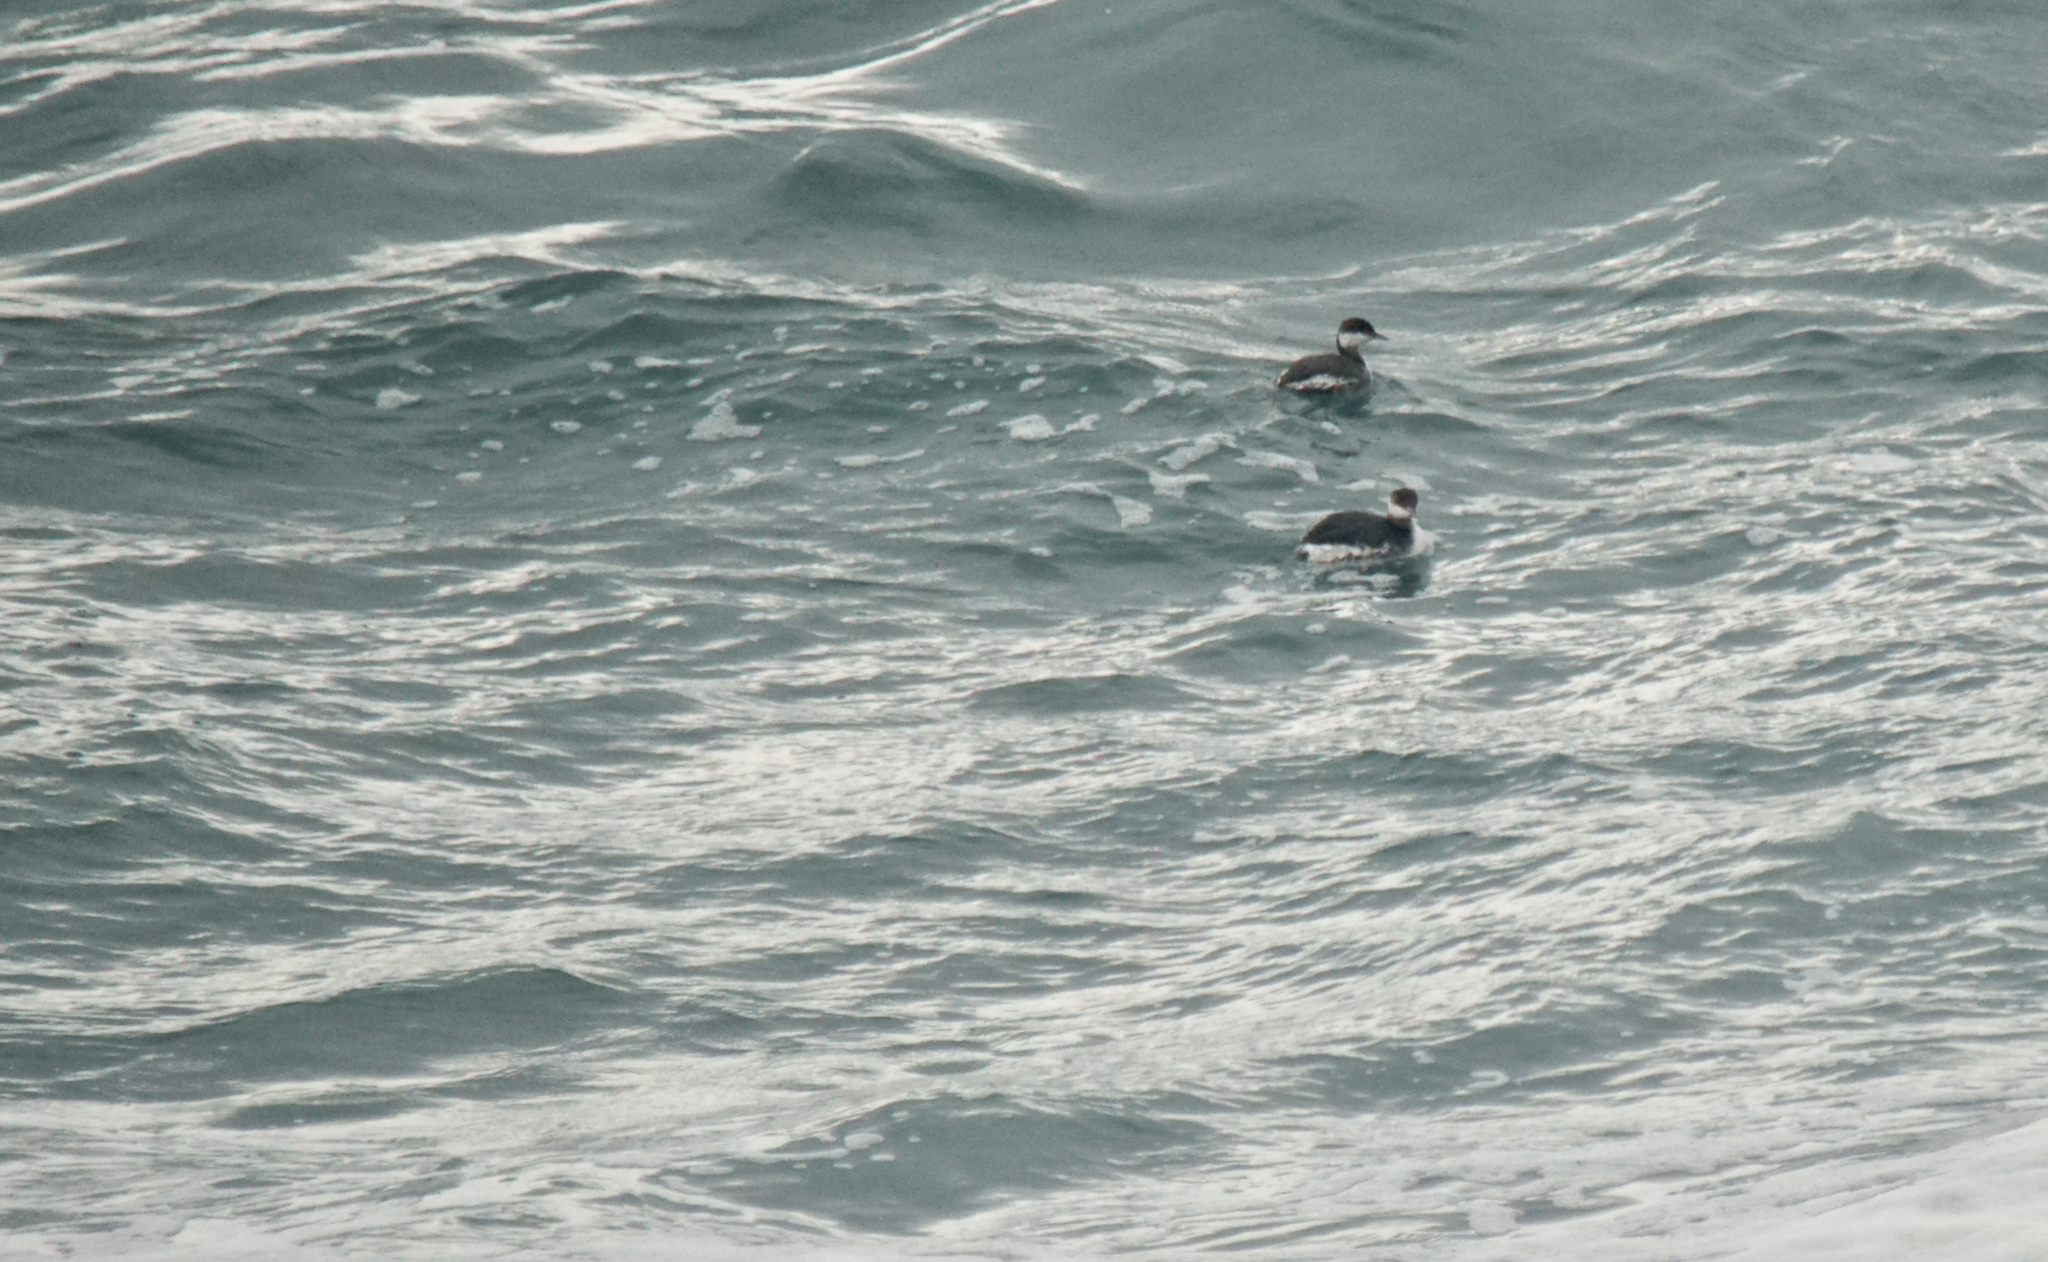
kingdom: Animalia
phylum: Chordata
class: Aves
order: Podicipediformes
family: Podicipedidae
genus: Podiceps
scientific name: Podiceps auritus
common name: Horned grebe
